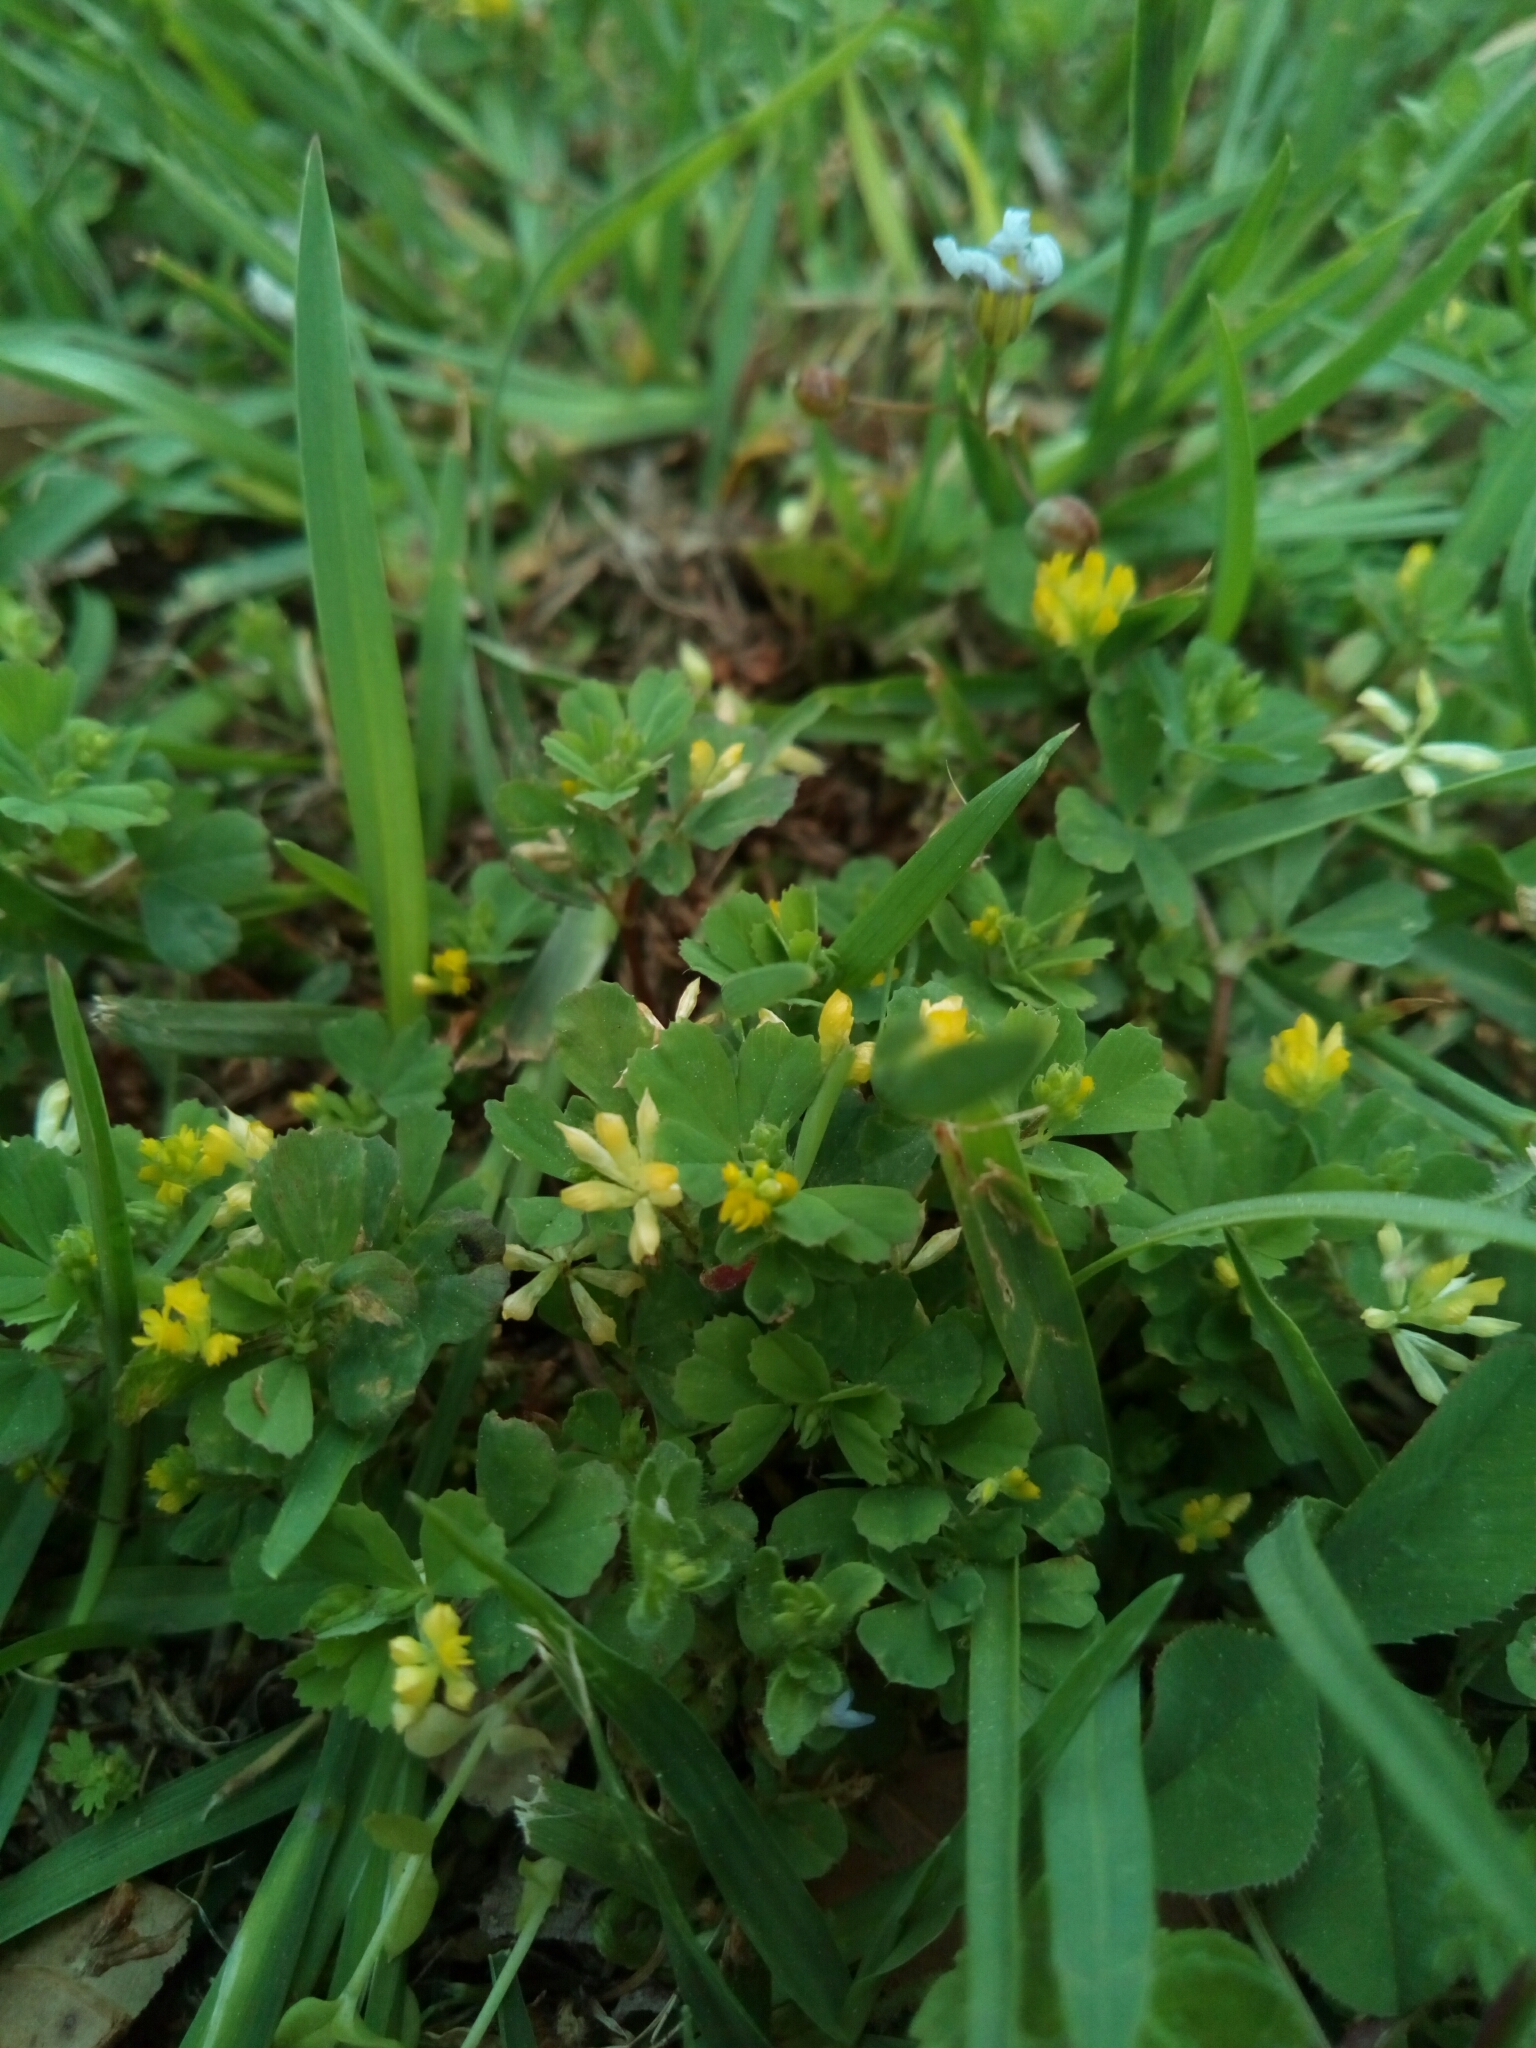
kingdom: Plantae
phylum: Tracheophyta
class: Magnoliopsida
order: Fabales
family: Fabaceae
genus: Trifolium
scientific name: Trifolium dubium
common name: Suckling clover
